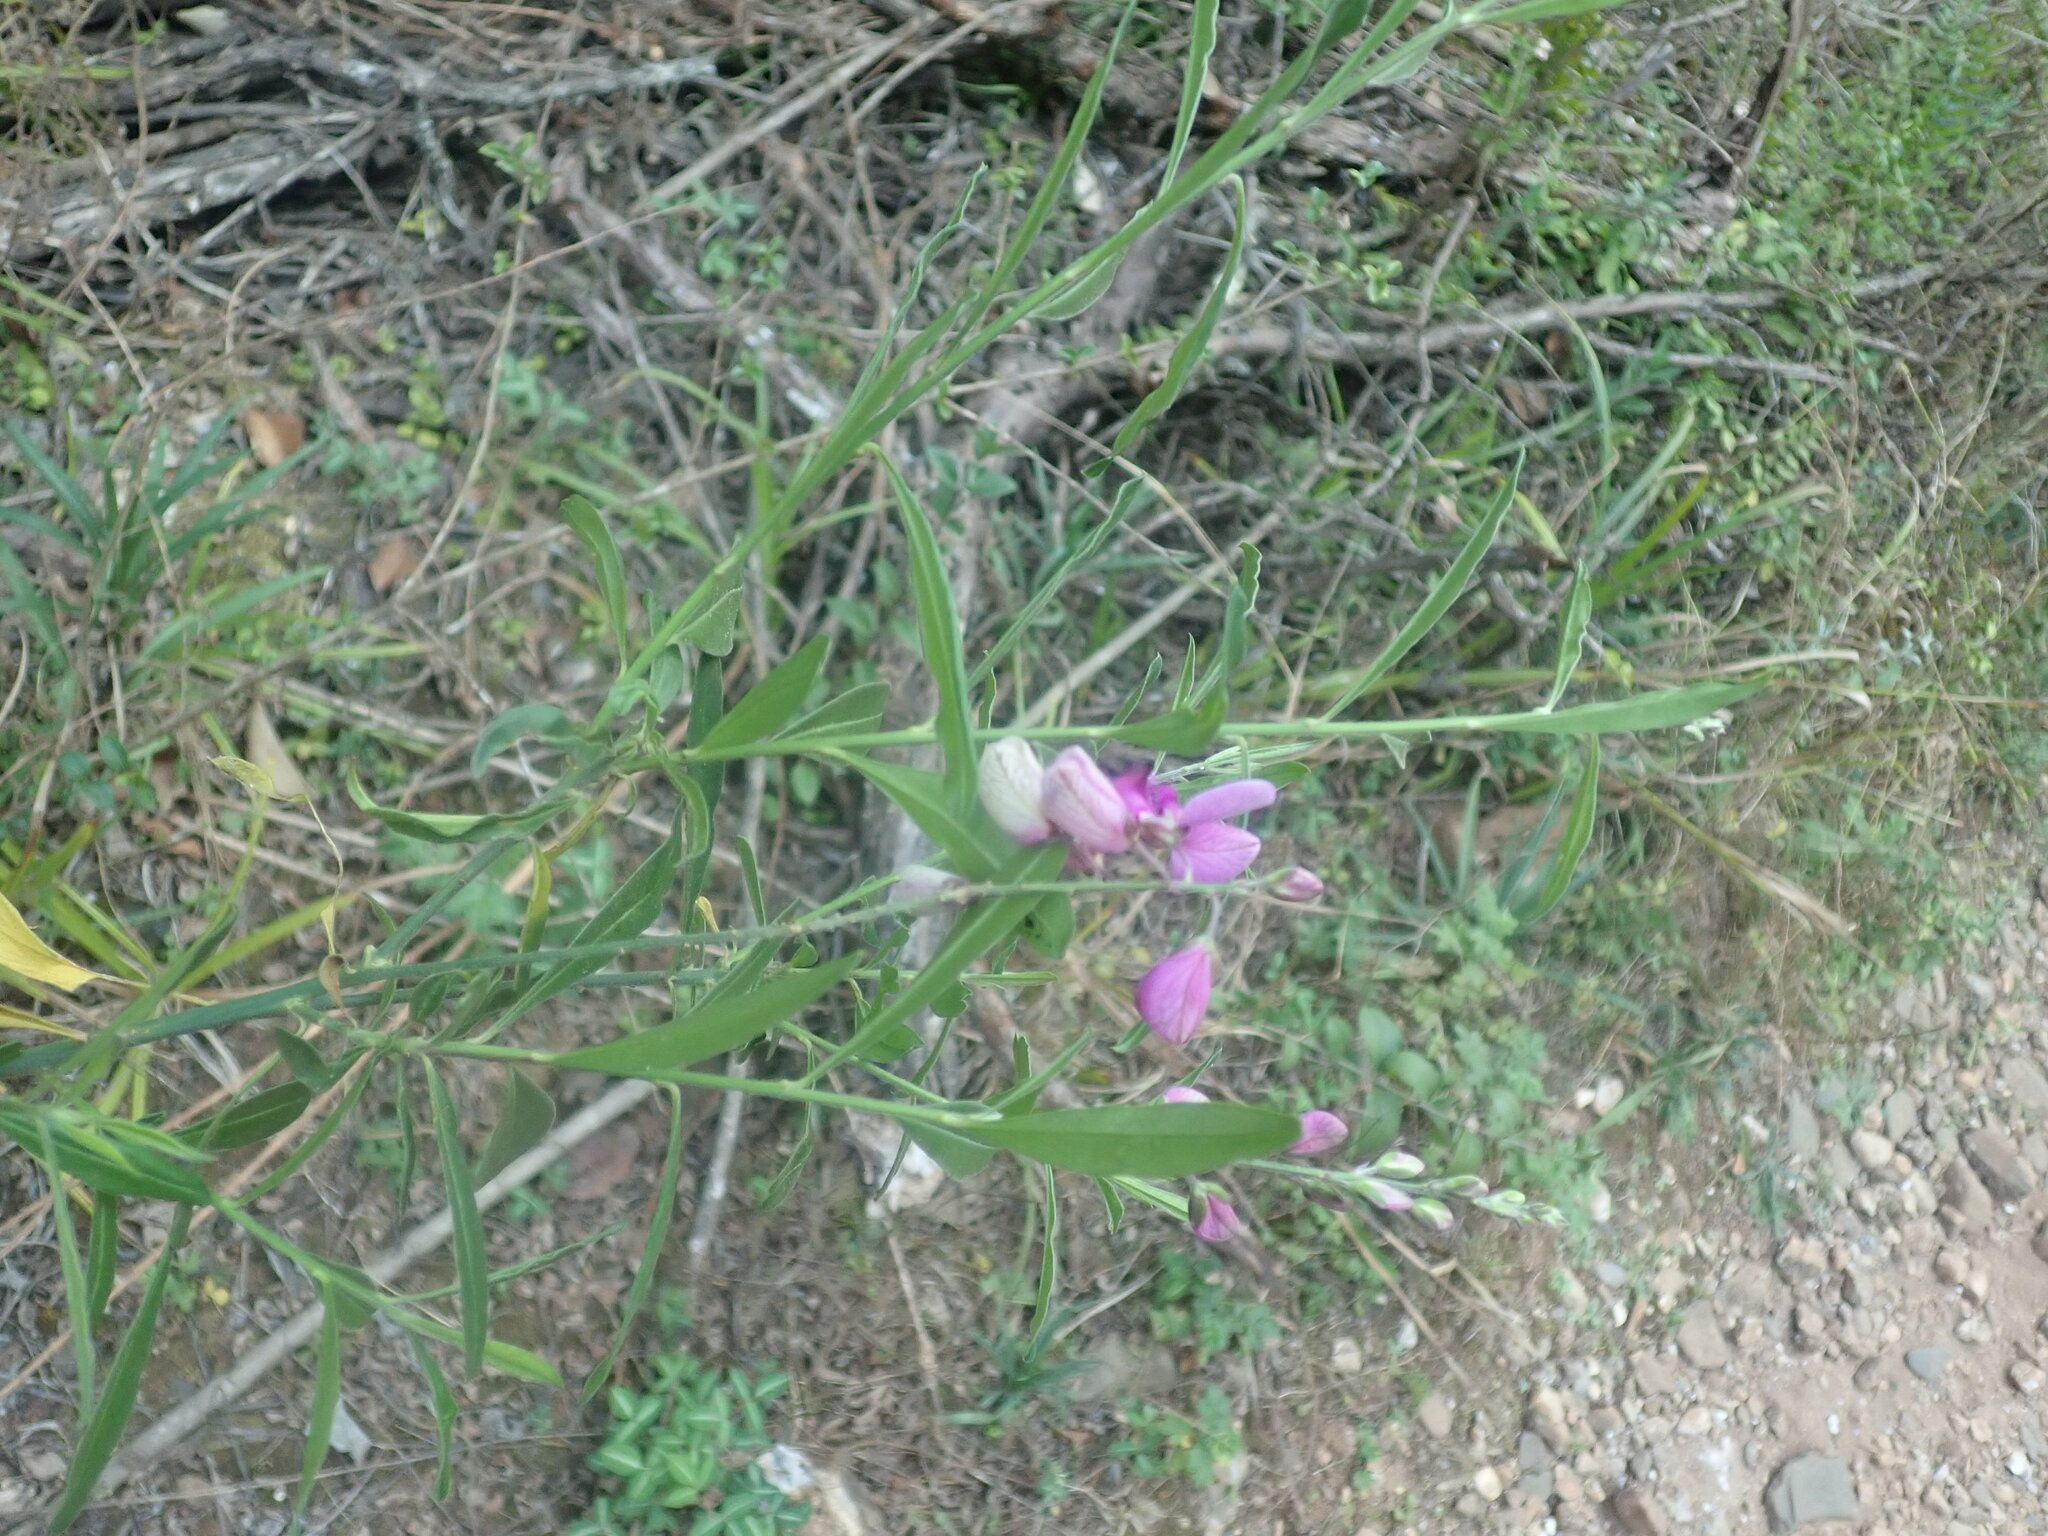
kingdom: Plantae
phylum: Tracheophyta
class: Magnoliopsida
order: Fabales
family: Polygalaceae
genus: Polygala
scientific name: Polygala virgata
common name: Milkwort
